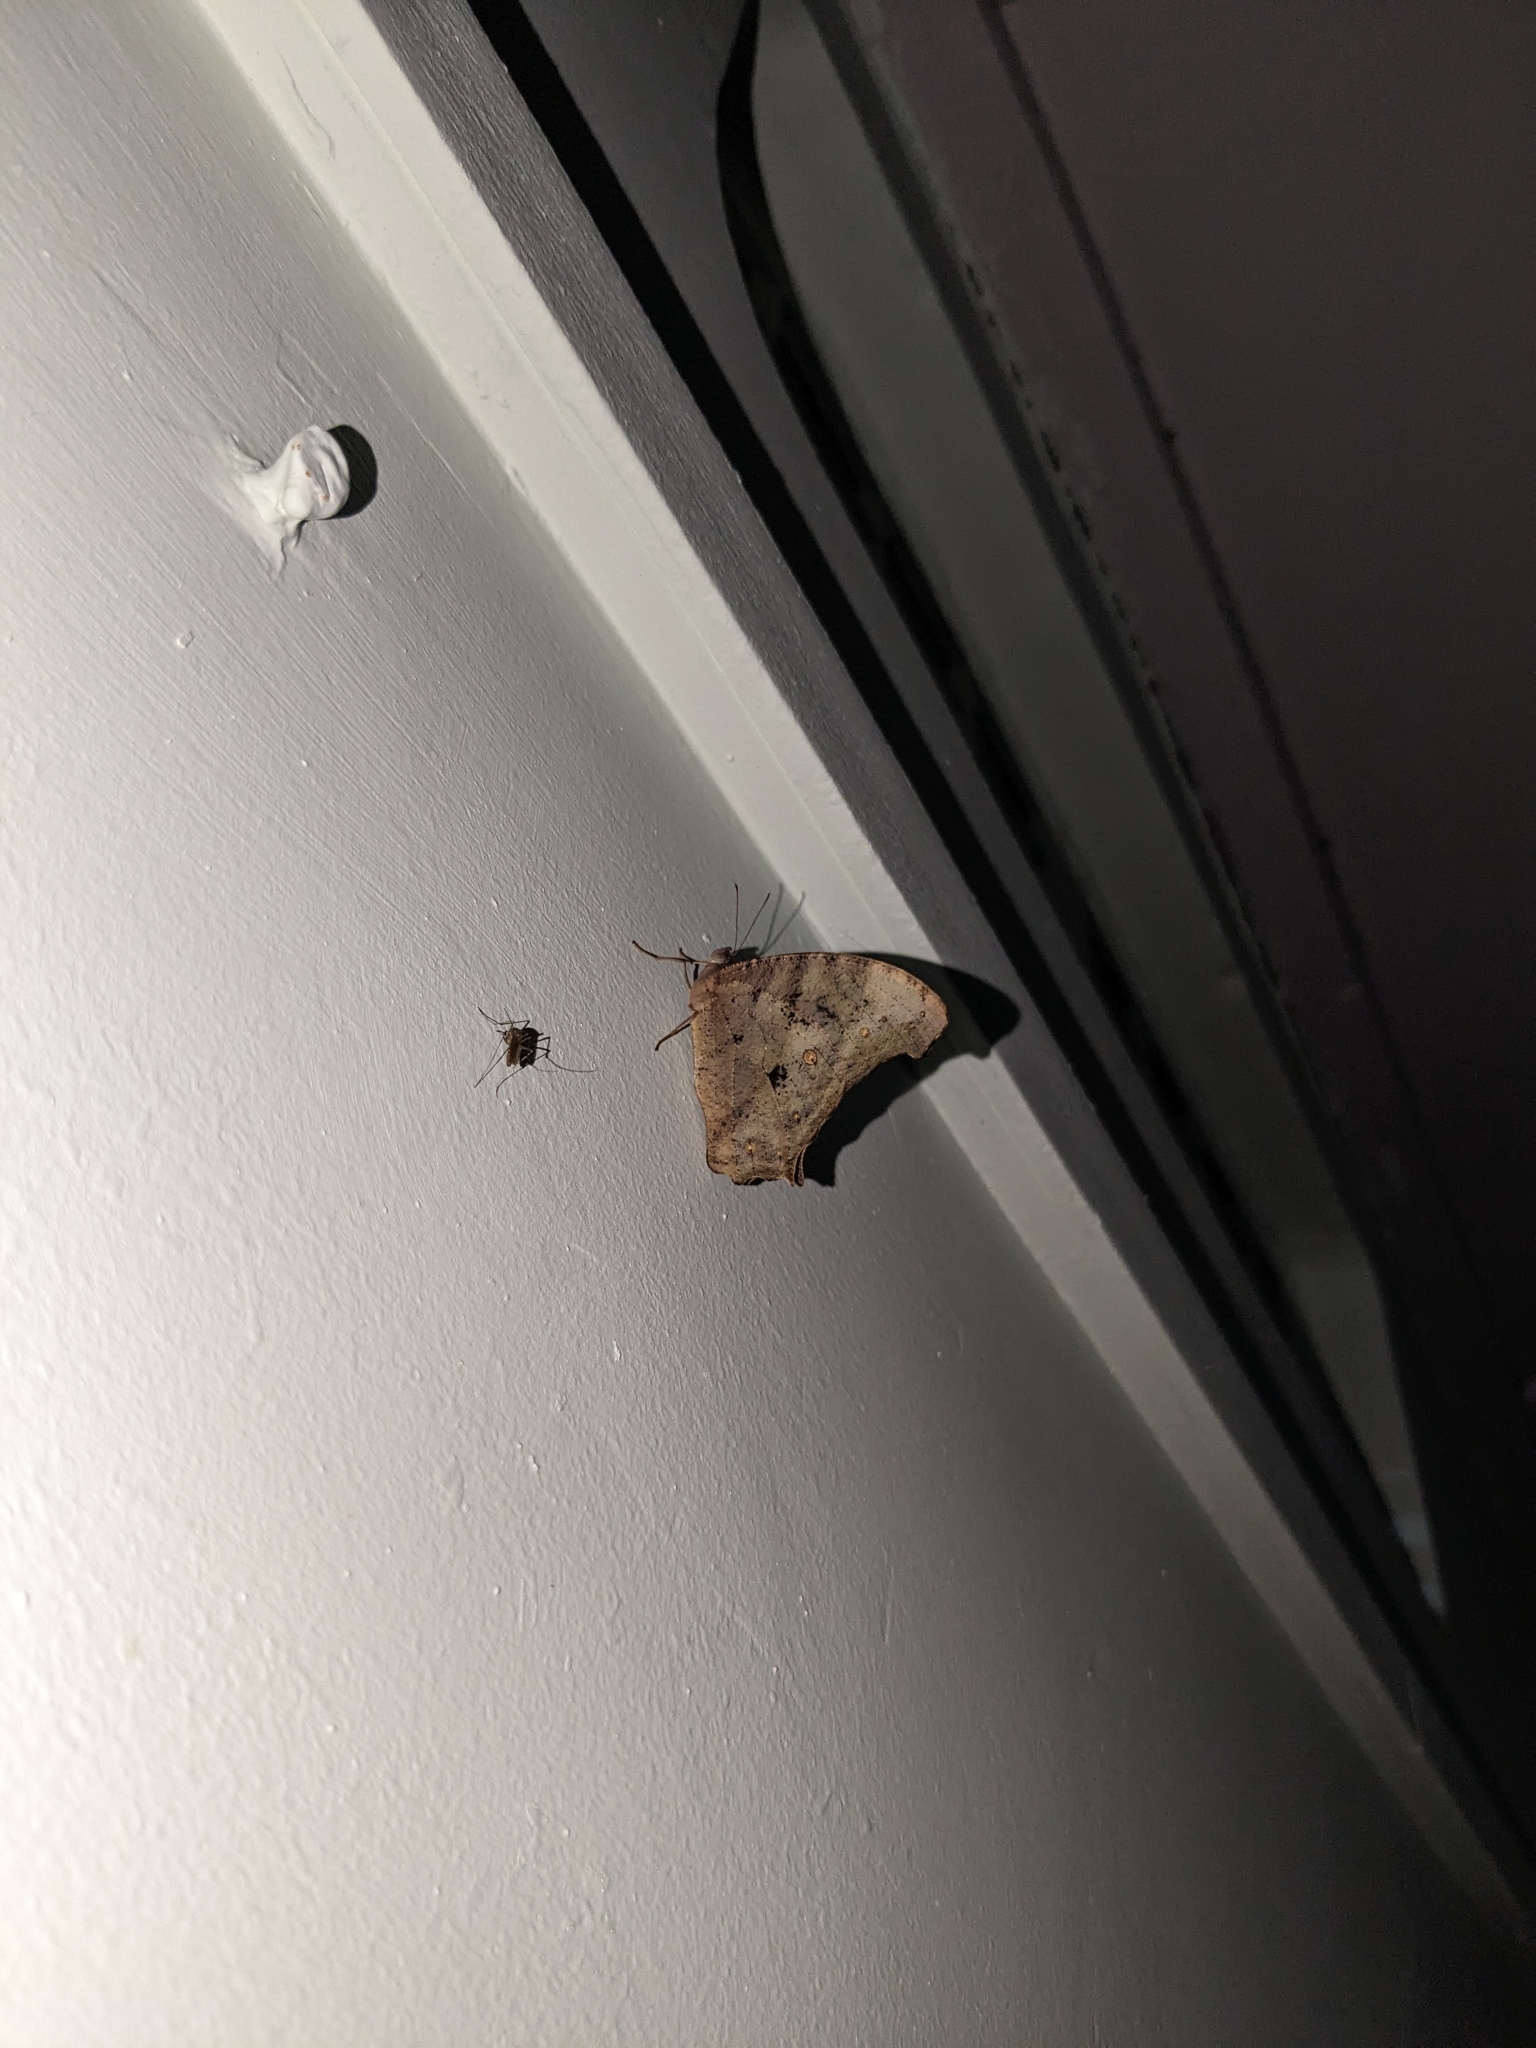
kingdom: Animalia
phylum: Arthropoda
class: Insecta
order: Lepidoptera
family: Nymphalidae
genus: Melanitis
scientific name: Melanitis leda
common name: Twilight brown
